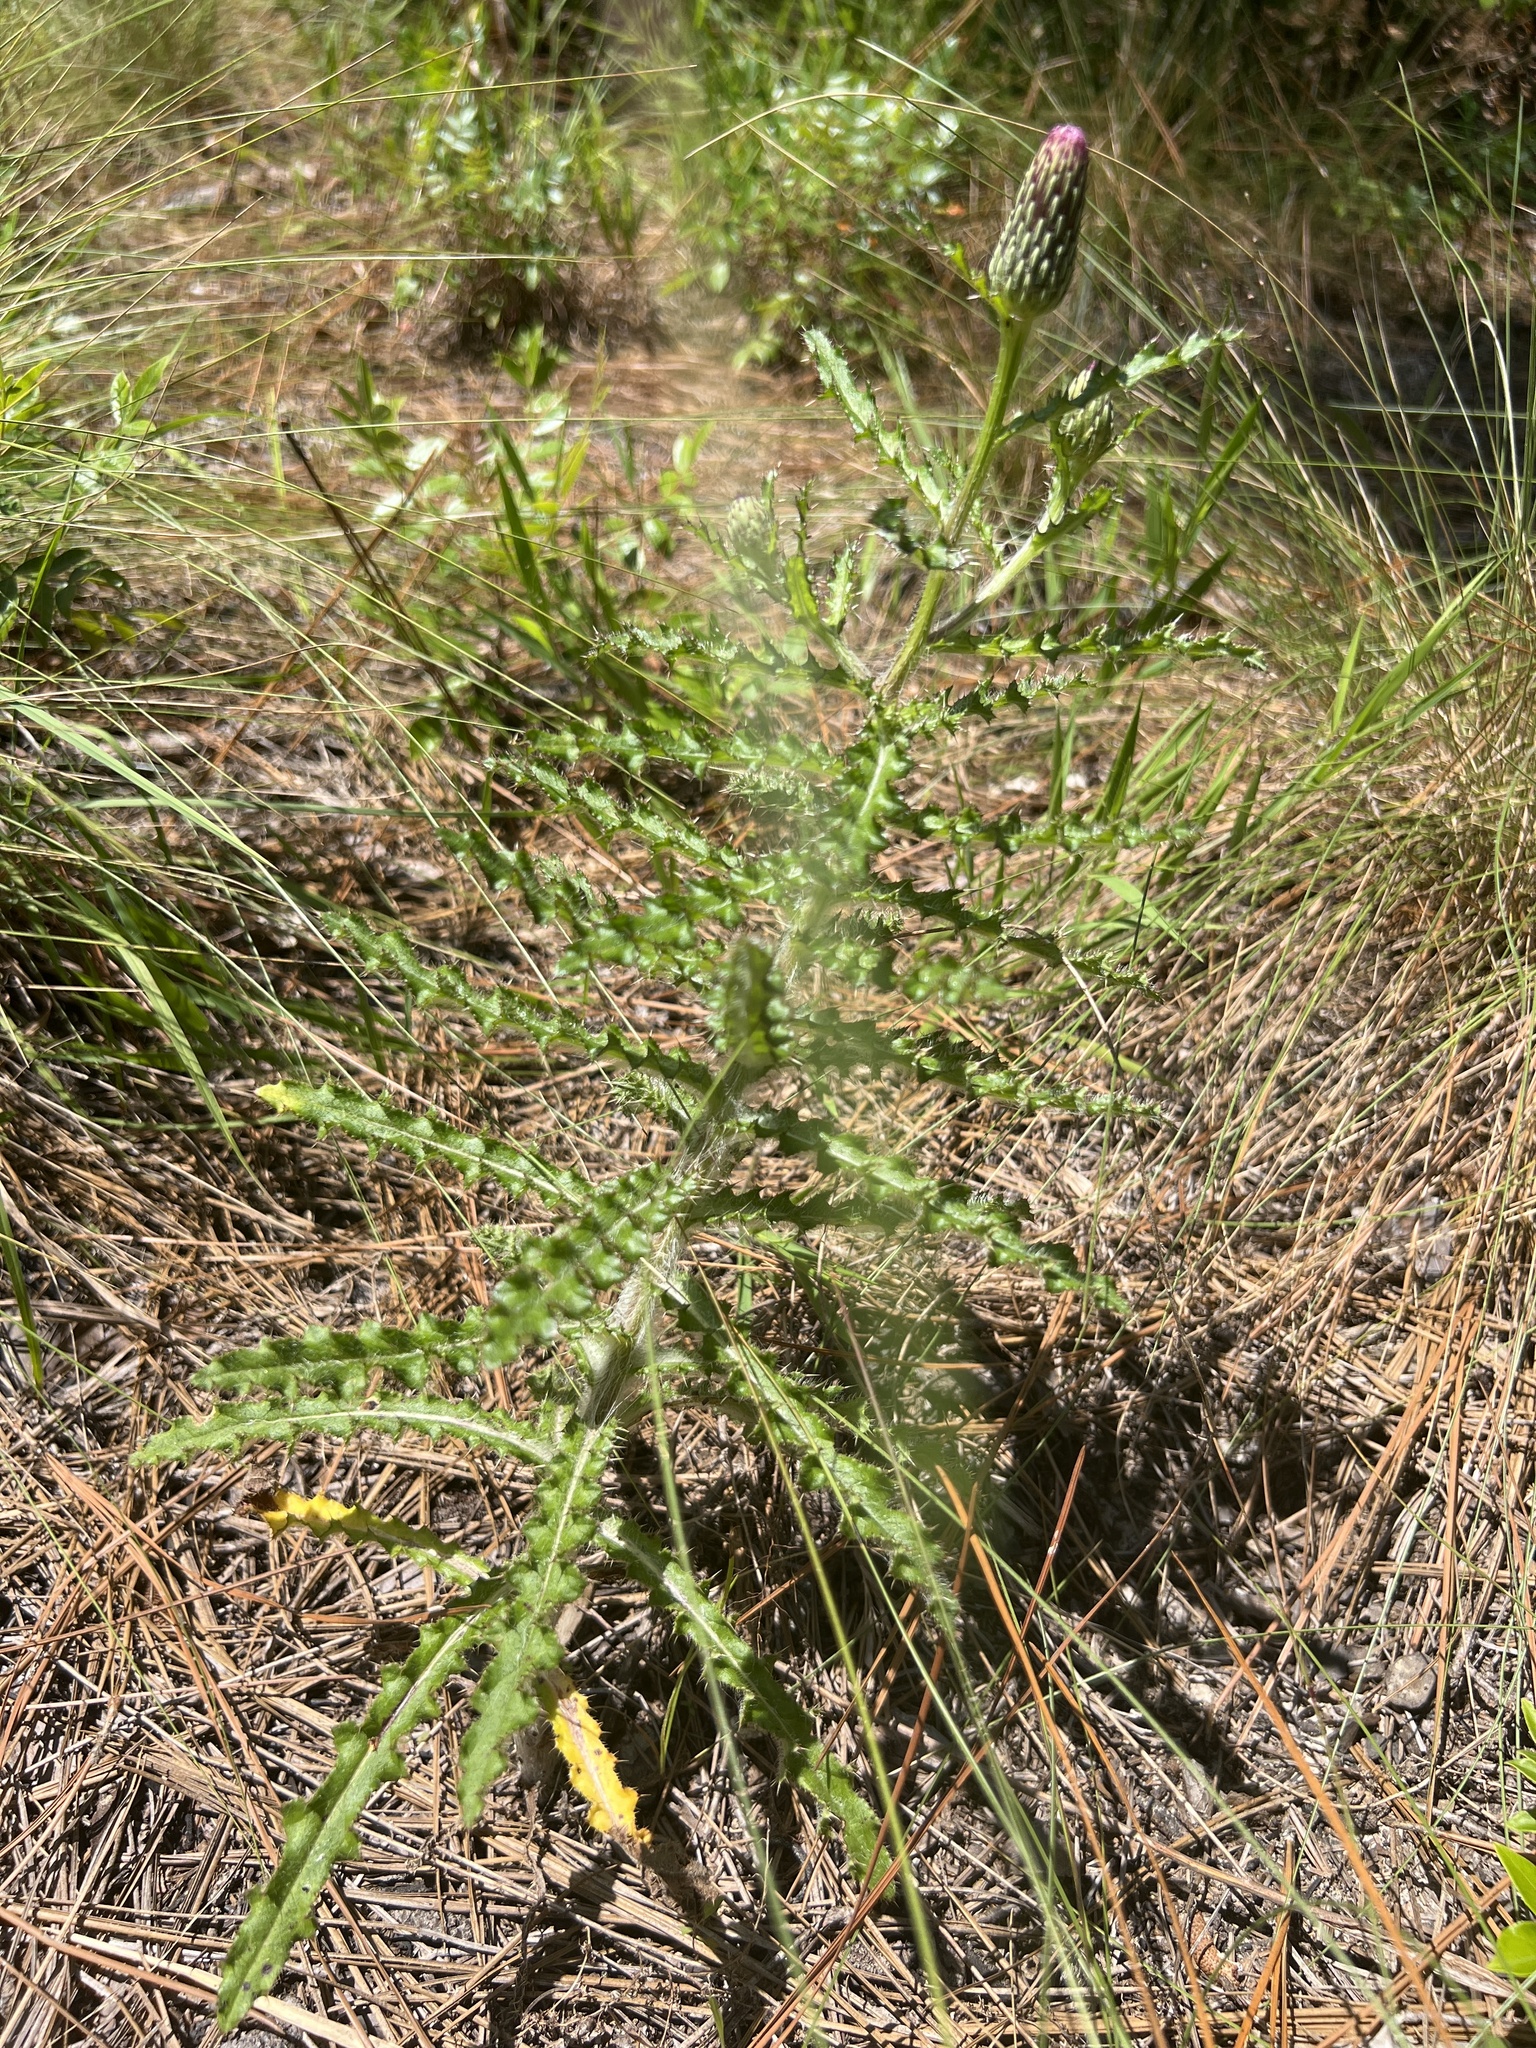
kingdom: Plantae
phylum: Tracheophyta
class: Magnoliopsida
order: Asterales
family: Asteraceae
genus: Cirsium
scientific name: Cirsium repandum
